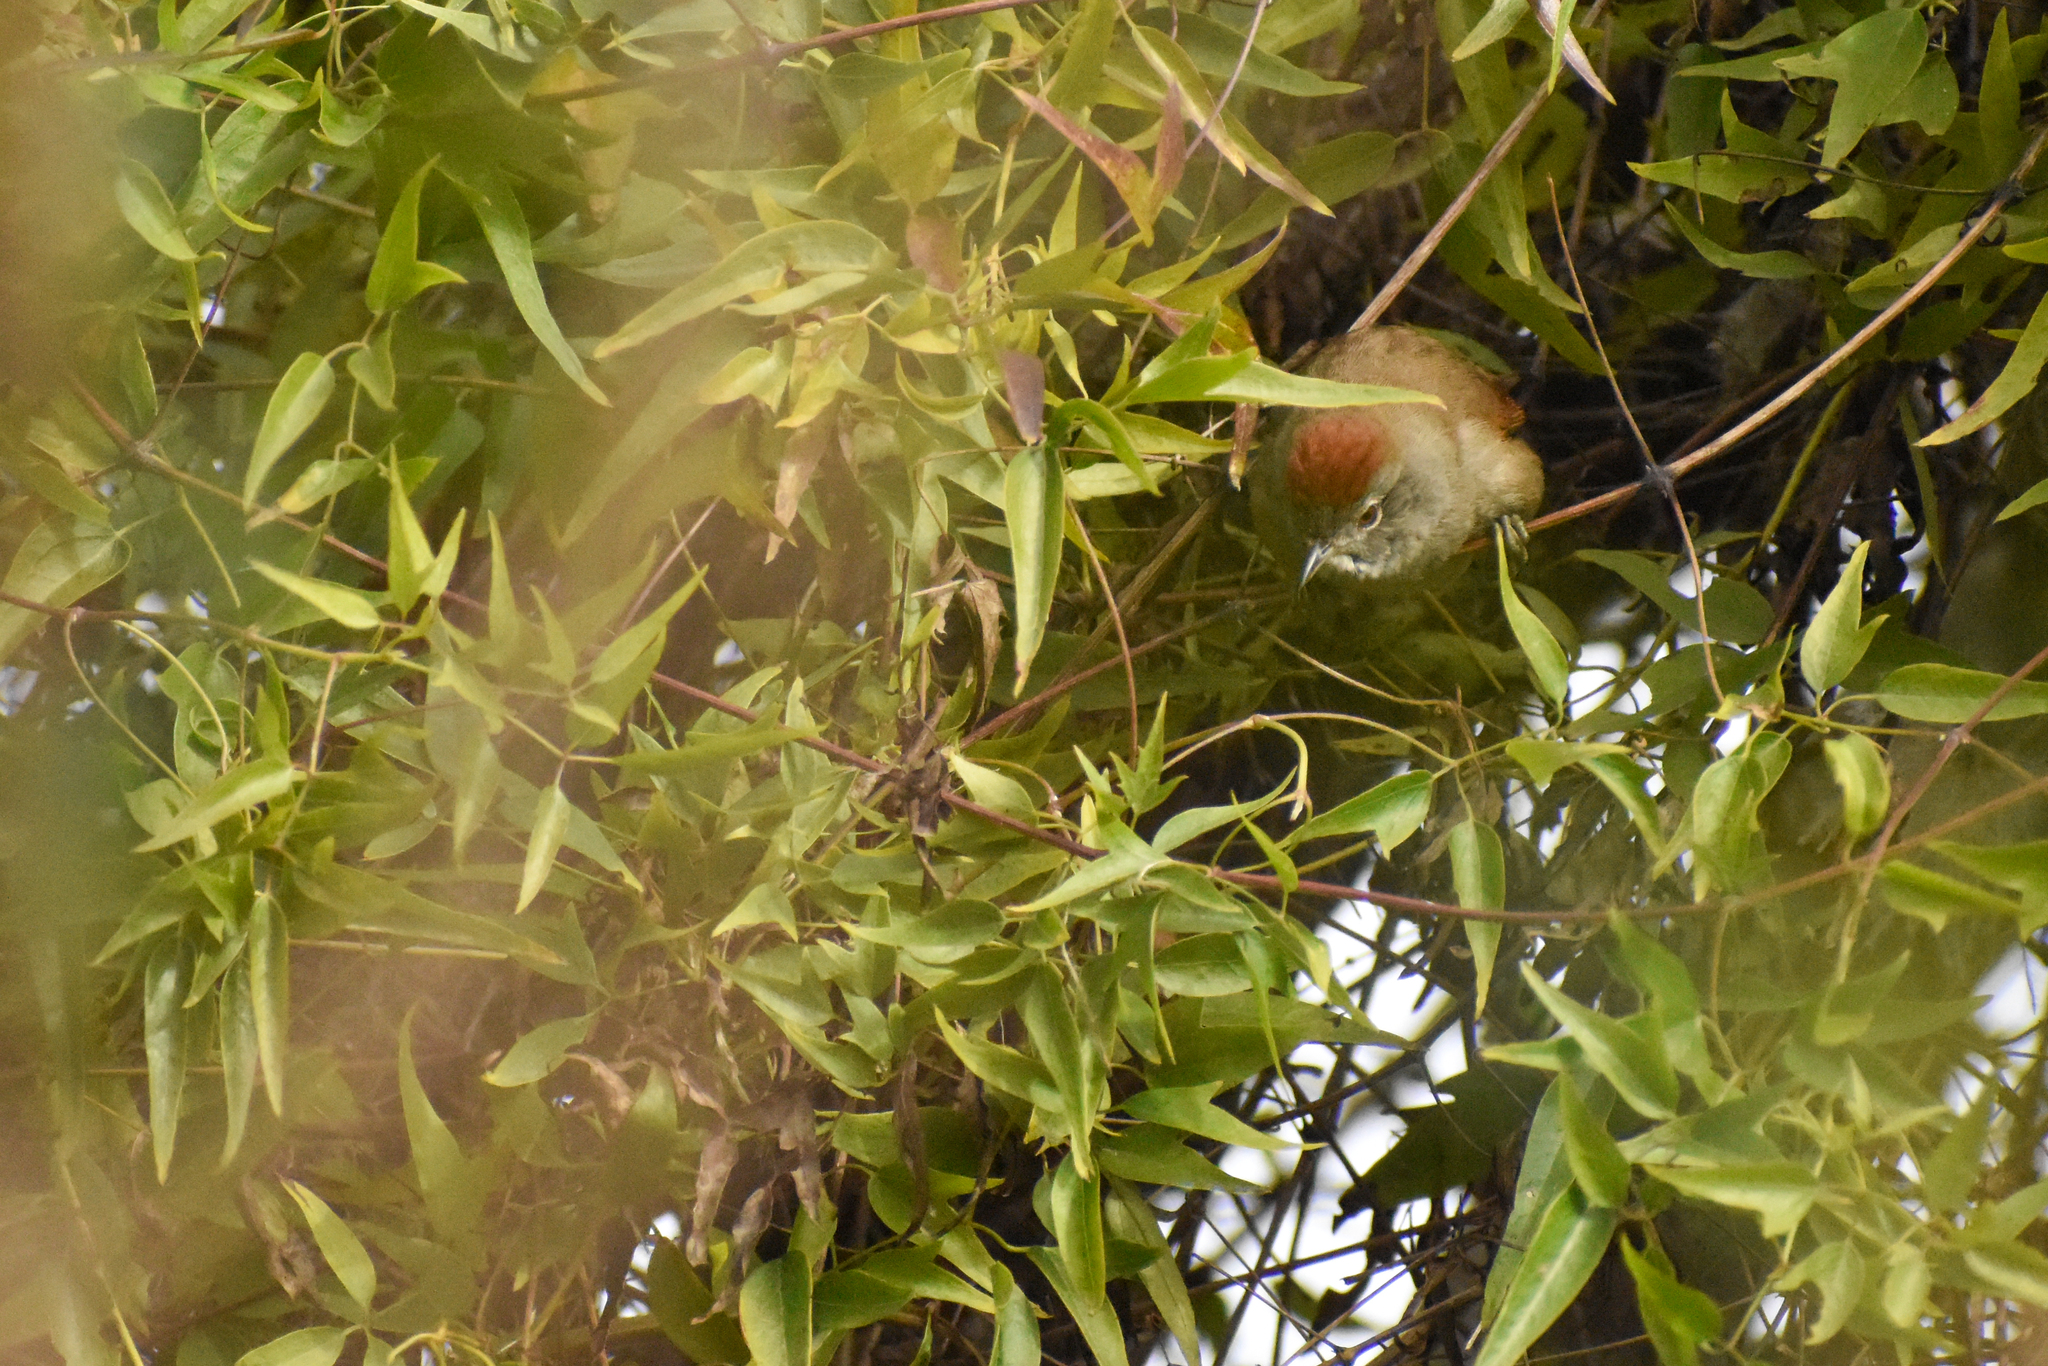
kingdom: Animalia
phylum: Chordata
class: Aves
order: Passeriformes
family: Furnariidae
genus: Synallaxis
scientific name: Synallaxis frontalis
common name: Sooty-fronted spinetail
